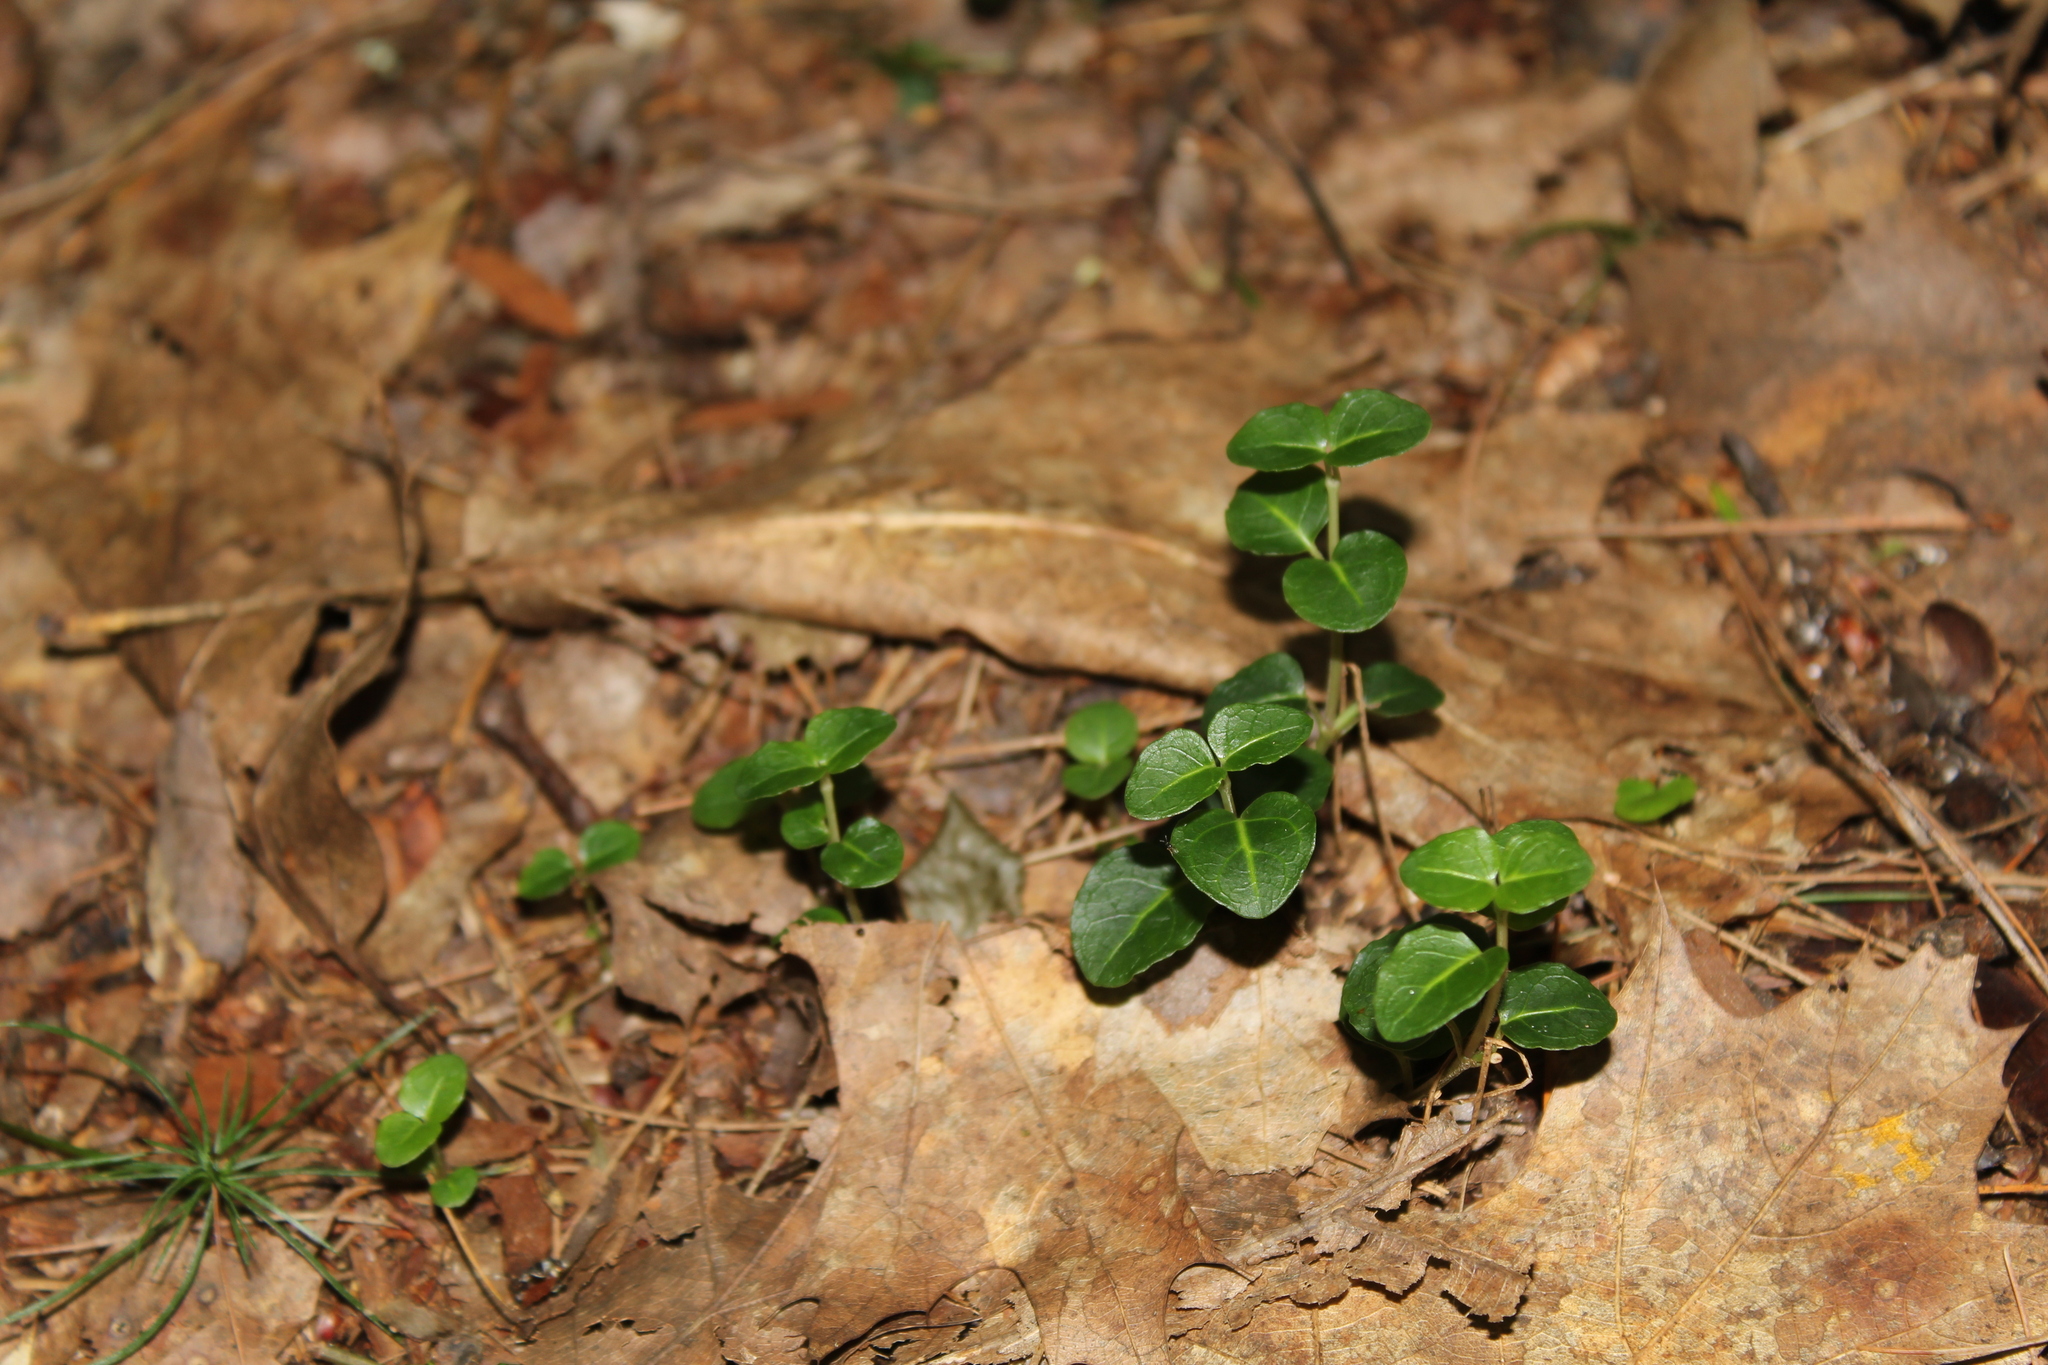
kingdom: Plantae
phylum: Tracheophyta
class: Magnoliopsida
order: Gentianales
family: Rubiaceae
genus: Mitchella
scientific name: Mitchella repens
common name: Partridge-berry
